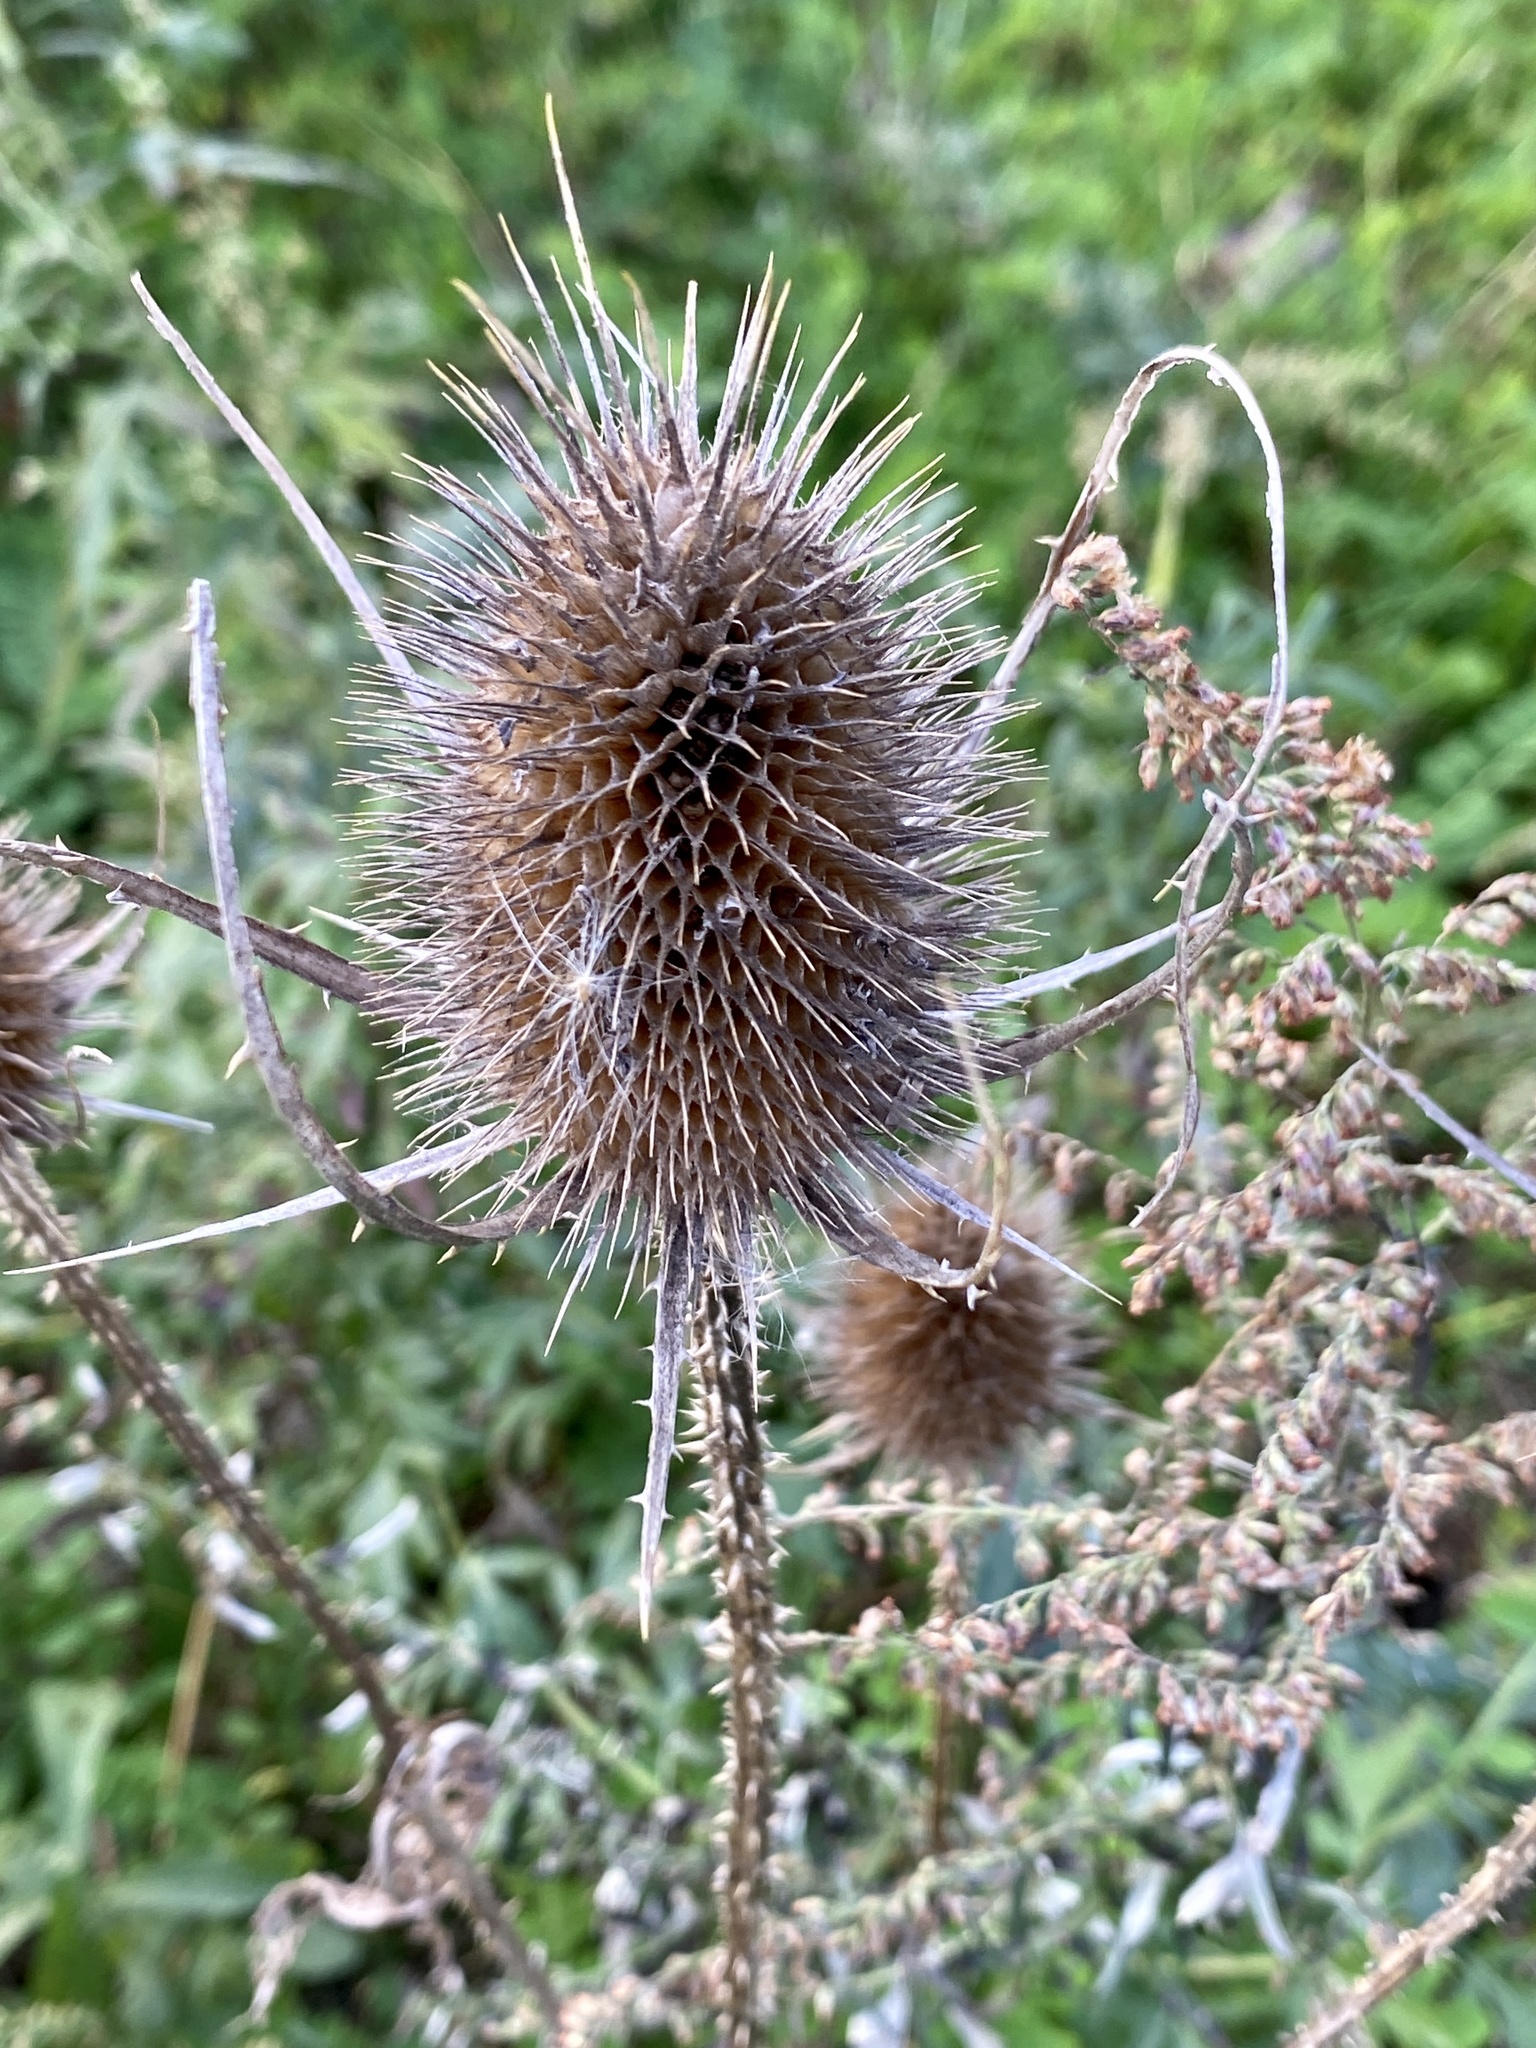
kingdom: Plantae
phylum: Tracheophyta
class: Magnoliopsida
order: Dipsacales
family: Caprifoliaceae
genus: Dipsacus
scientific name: Dipsacus fullonum
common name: Teasel
